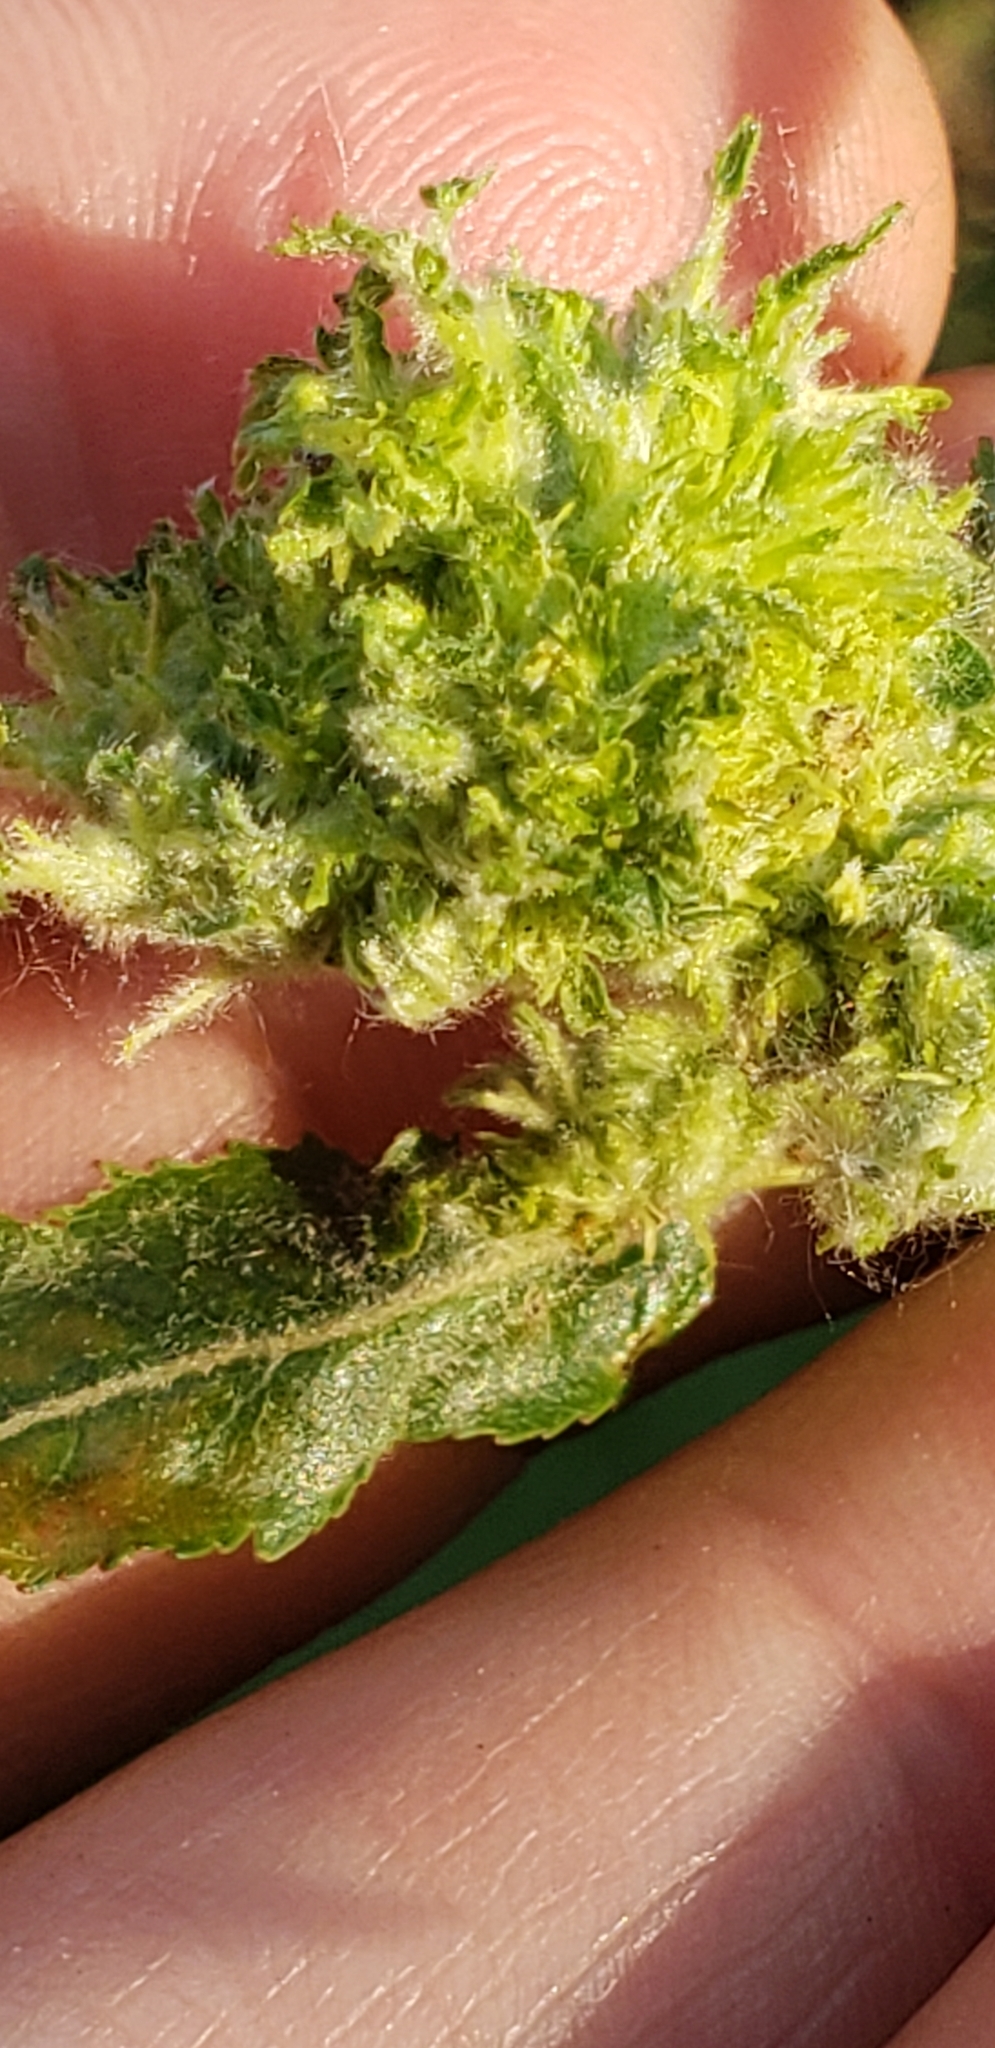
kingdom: Animalia
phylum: Arthropoda
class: Arachnida
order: Trombidiformes
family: Eriophyidae
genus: Aculops
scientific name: Aculops
